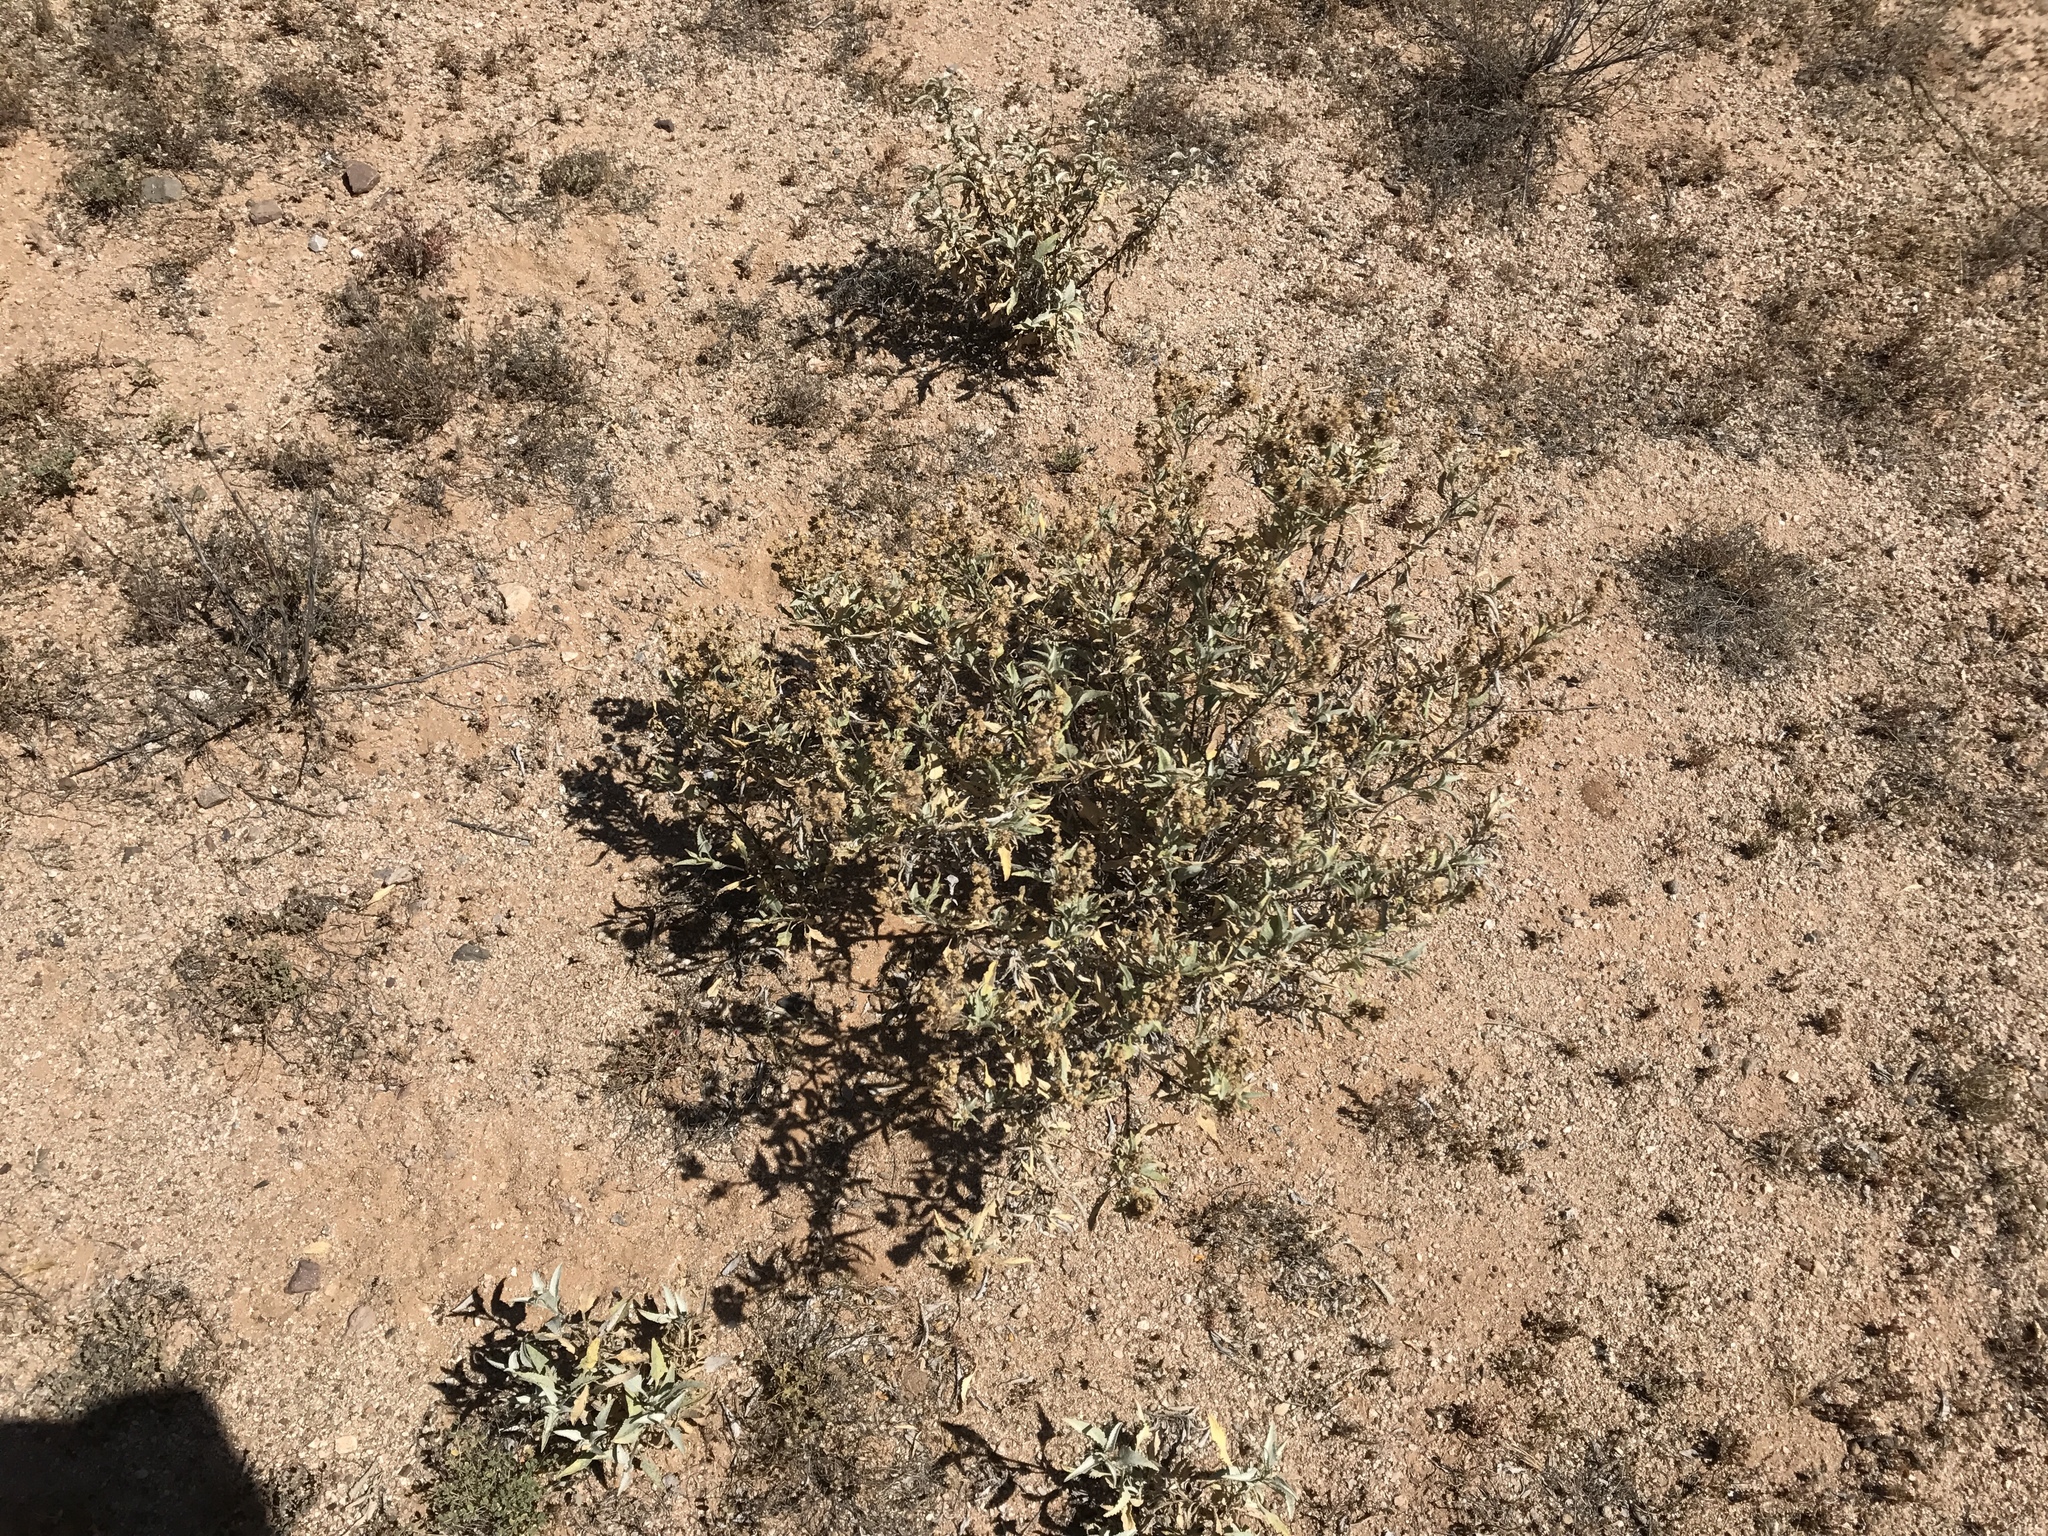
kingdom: Plantae
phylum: Tracheophyta
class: Magnoliopsida
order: Asterales
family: Asteraceae
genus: Ambrosia
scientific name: Ambrosia deltoidea
